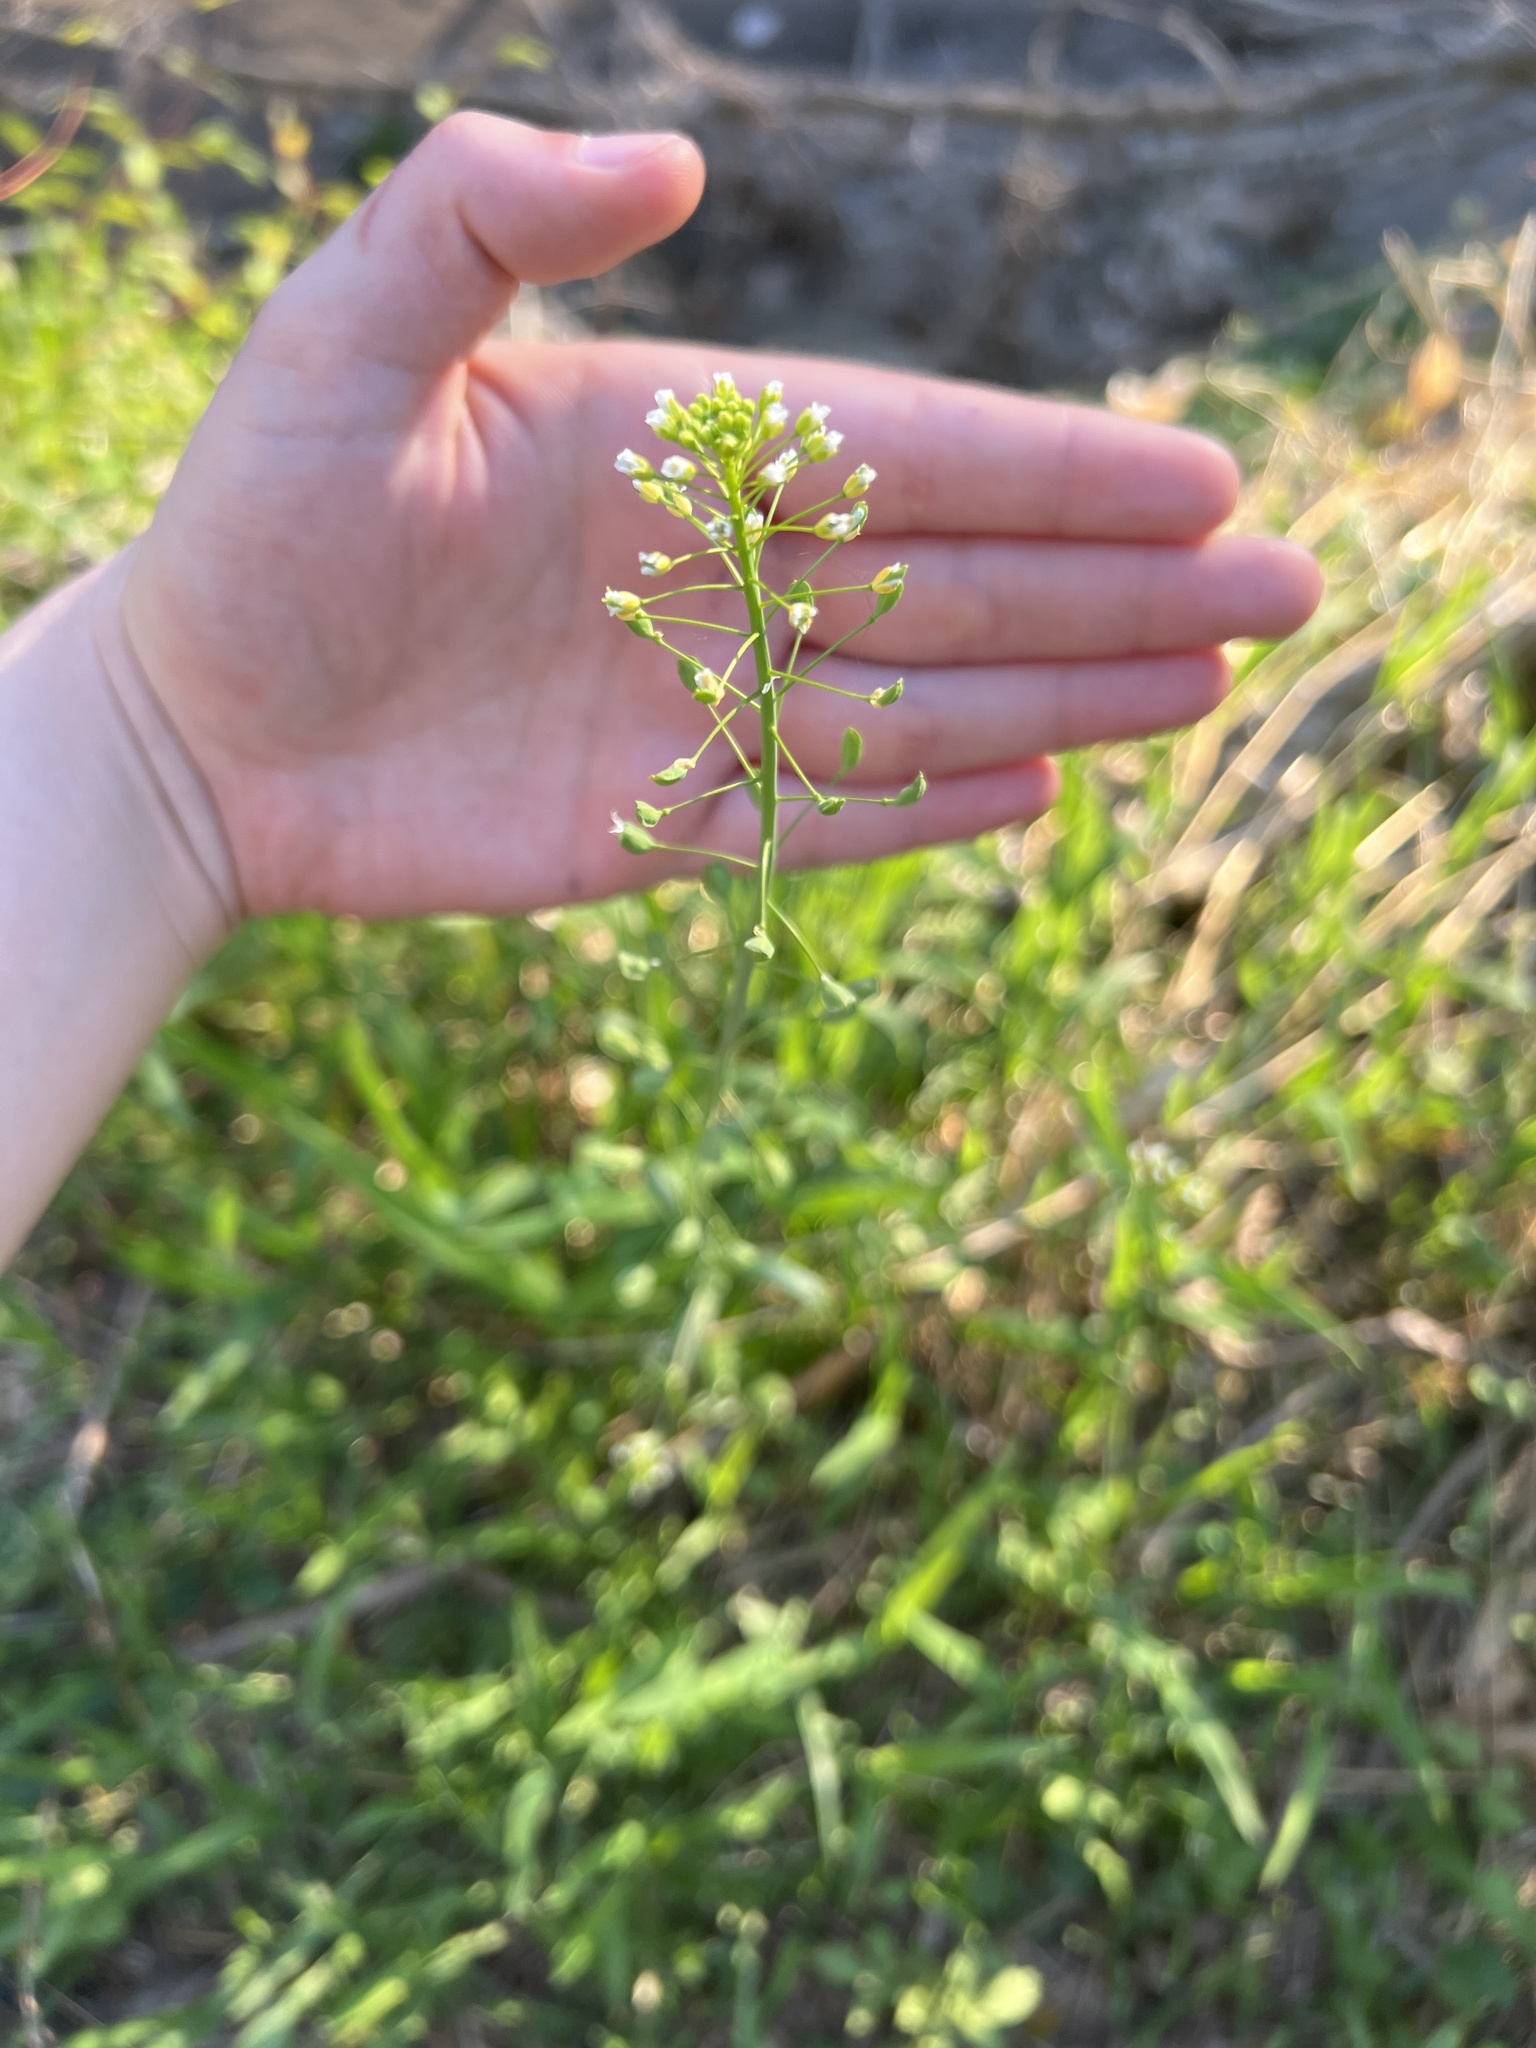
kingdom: Plantae
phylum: Tracheophyta
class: Magnoliopsida
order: Brassicales
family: Brassicaceae
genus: Mummenhoffia
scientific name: Mummenhoffia alliacea
